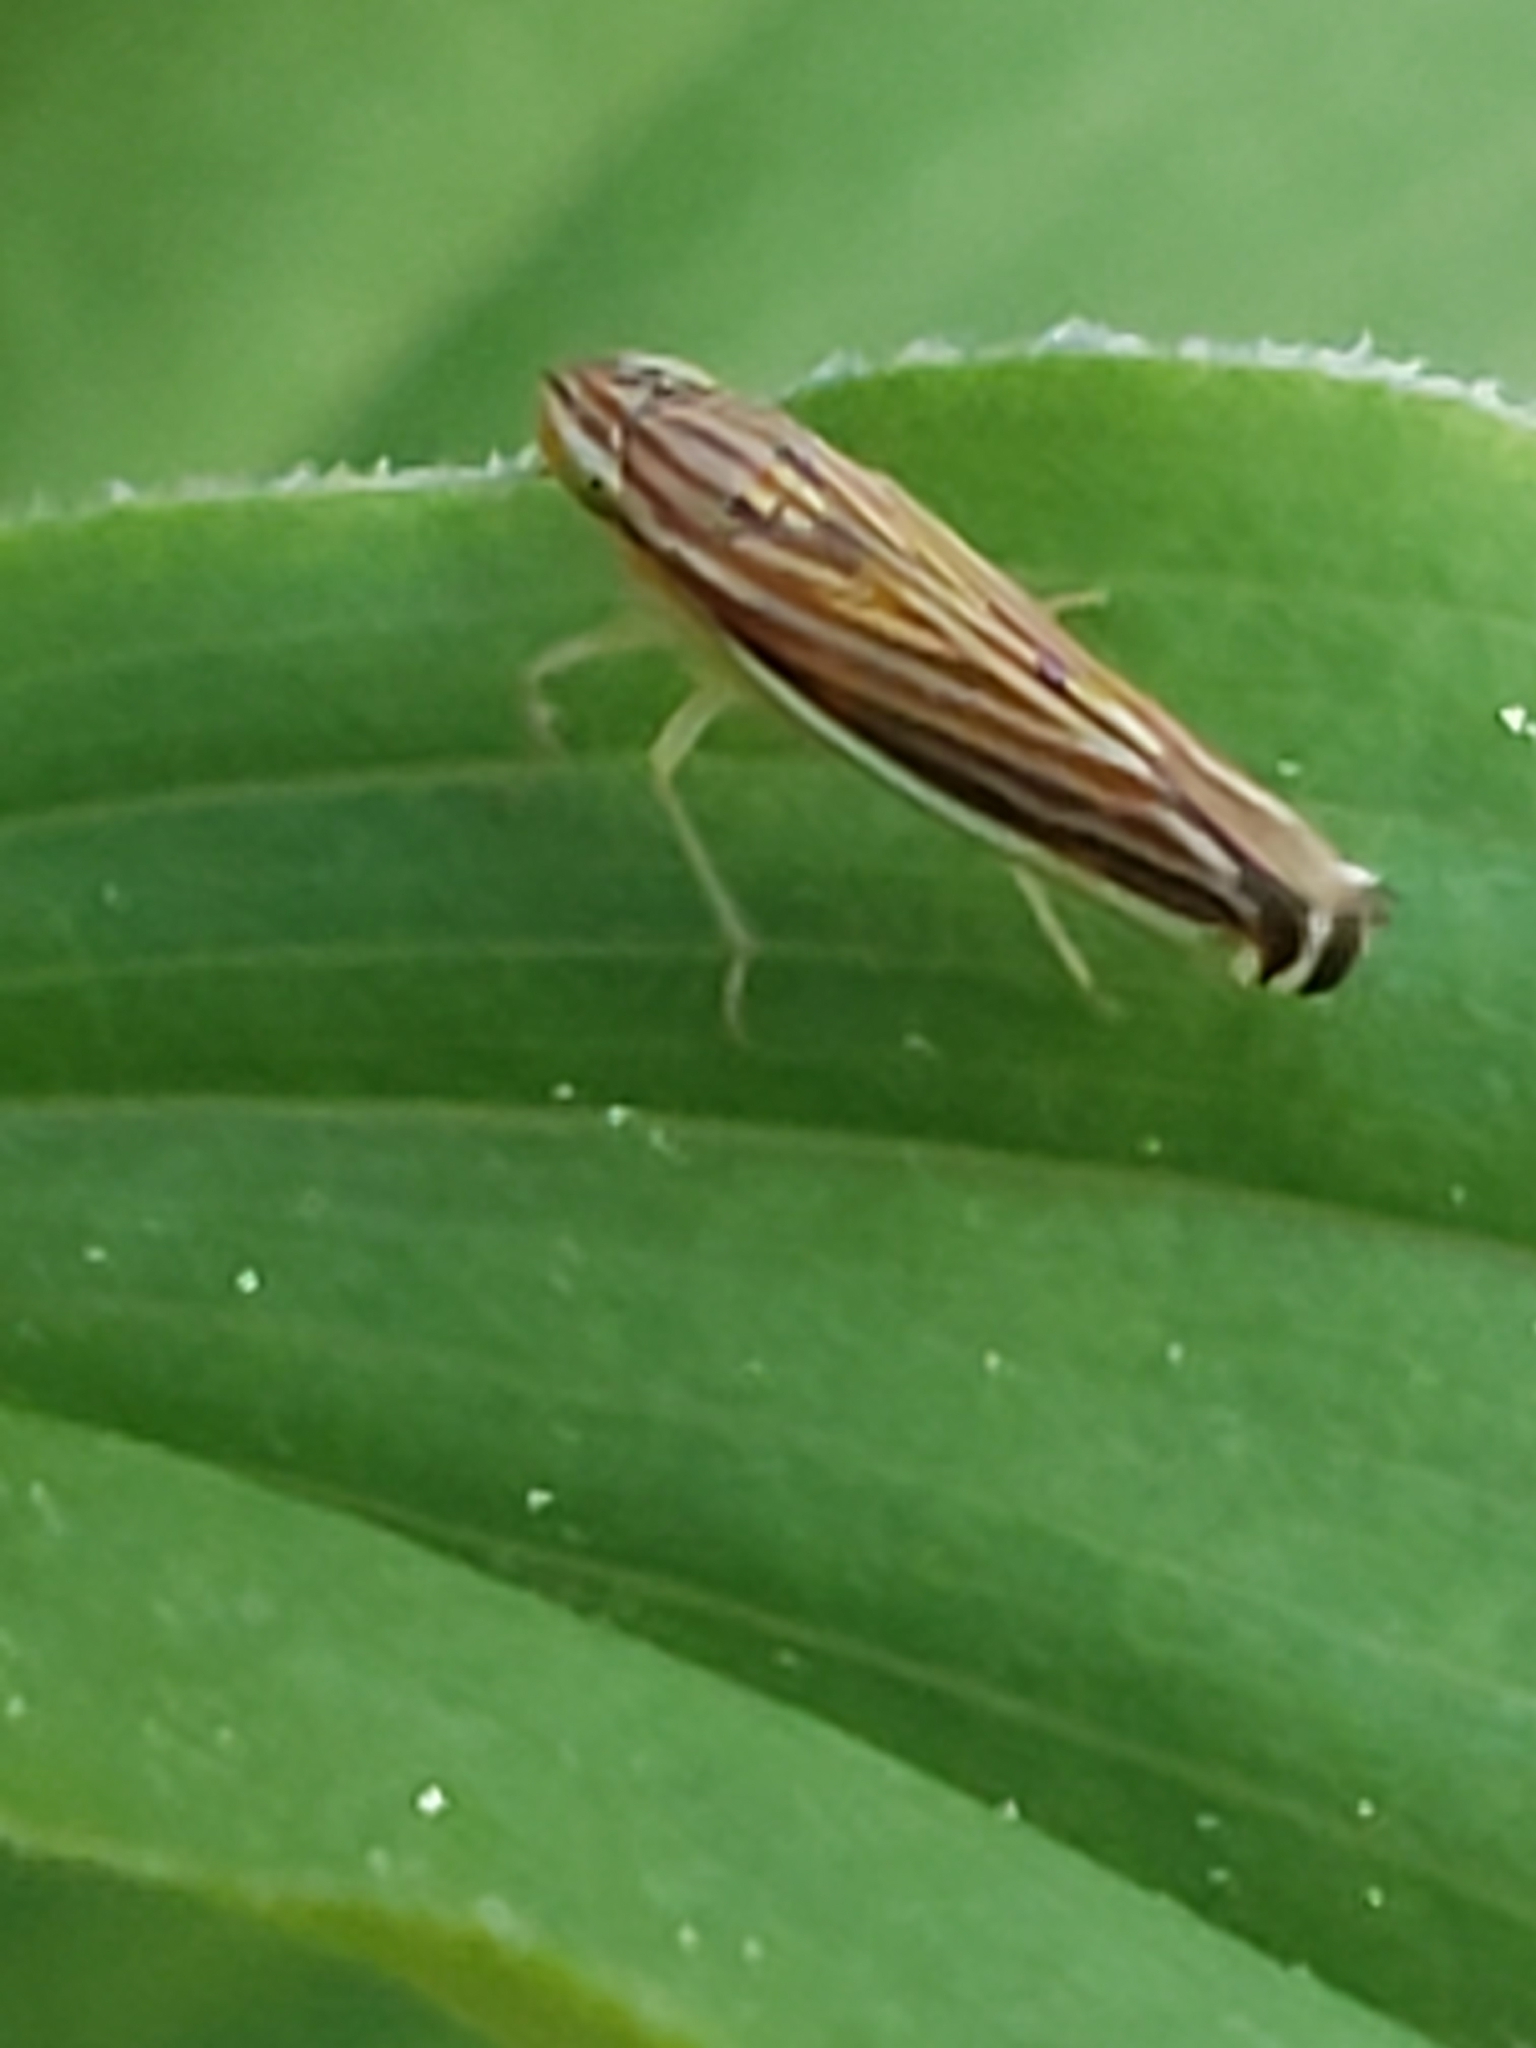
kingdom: Animalia
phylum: Arthropoda
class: Insecta
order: Hemiptera
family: Cicadellidae
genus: Sibovia
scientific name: Sibovia occatoria
